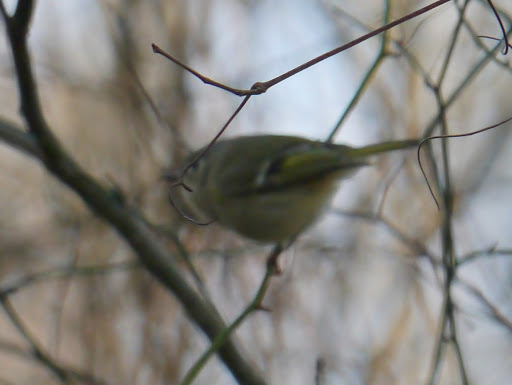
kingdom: Animalia
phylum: Chordata
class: Aves
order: Passeriformes
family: Regulidae
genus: Regulus
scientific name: Regulus calendula
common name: Ruby-crowned kinglet
